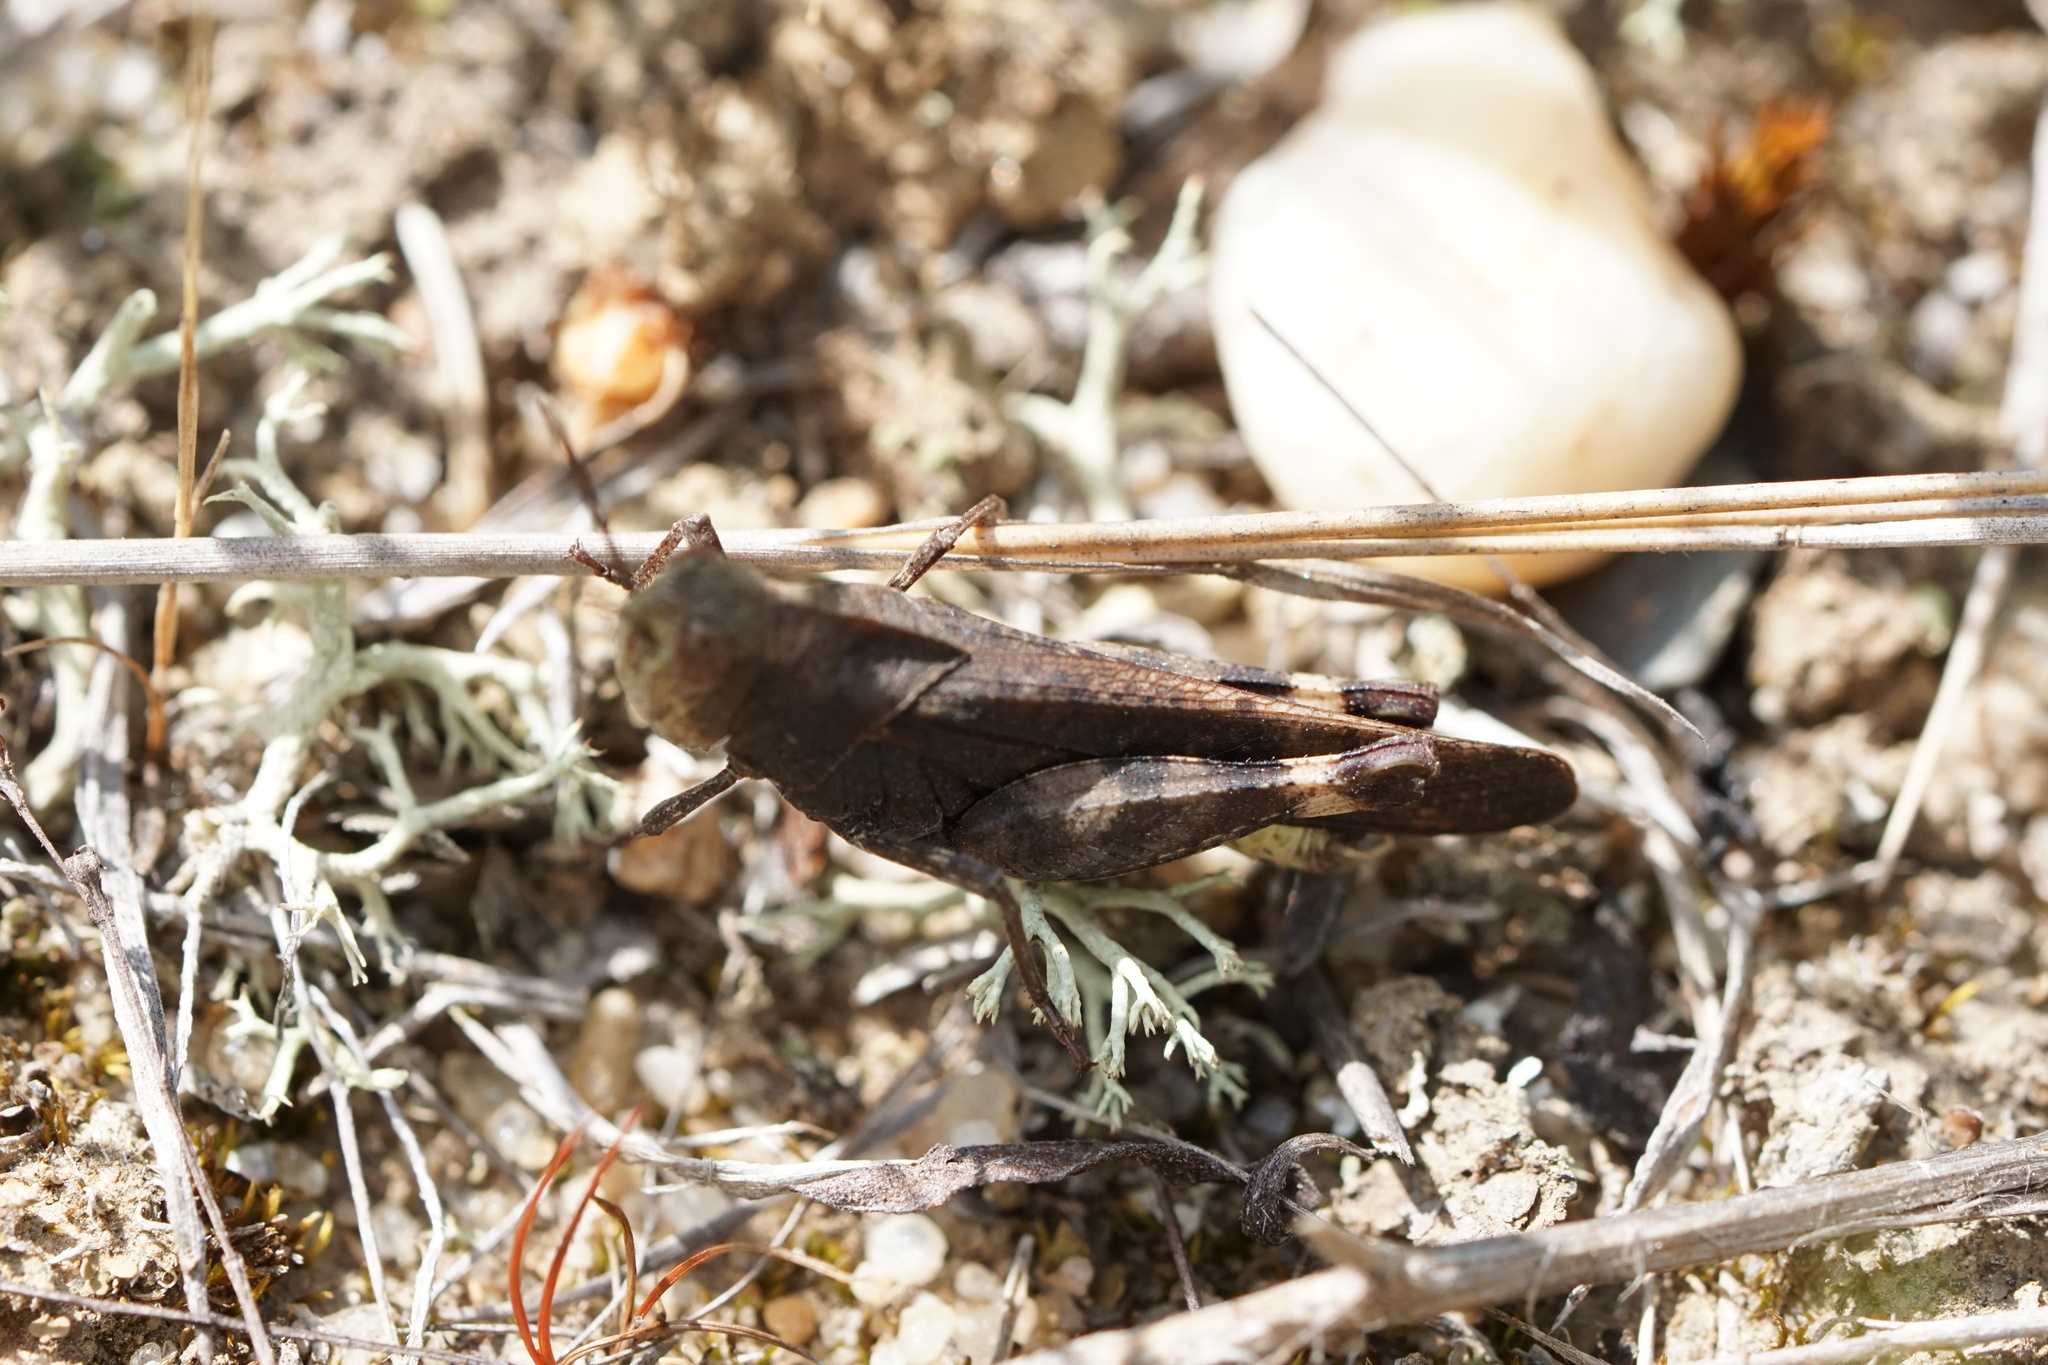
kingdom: Animalia
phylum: Arthropoda
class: Insecta
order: Orthoptera
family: Acrididae
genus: Arphia
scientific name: Arphia sulphurea
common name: Spring yellow-winged locust
